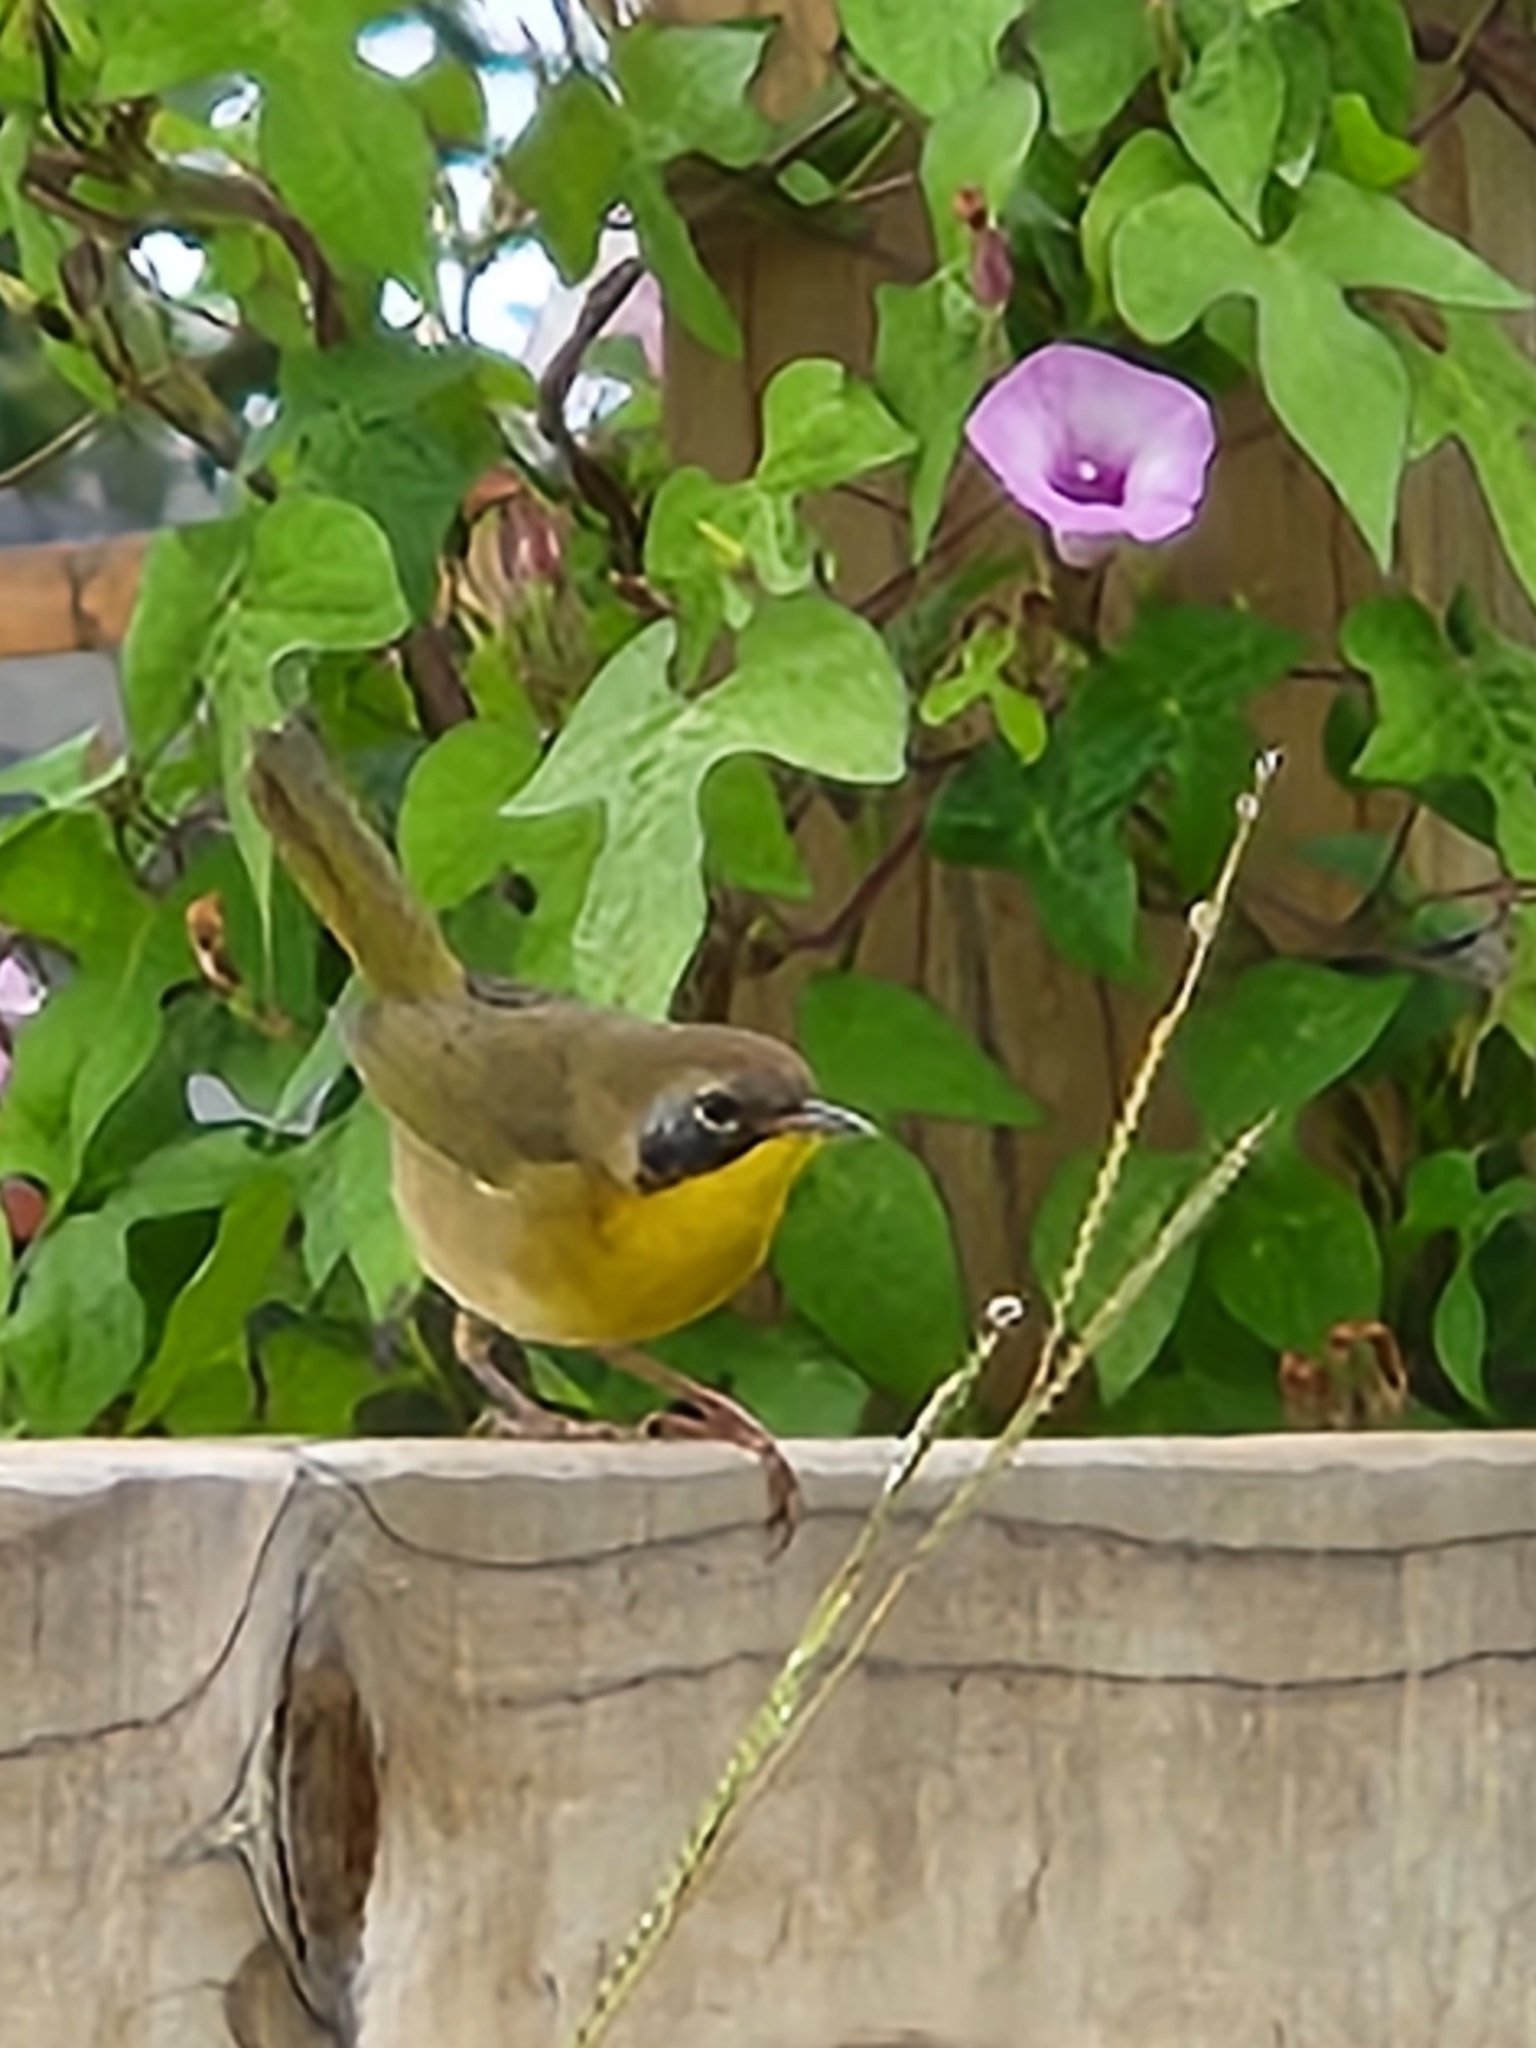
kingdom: Animalia
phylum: Chordata
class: Aves
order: Passeriformes
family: Parulidae
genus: Geothlypis
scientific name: Geothlypis trichas
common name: Common yellowthroat
